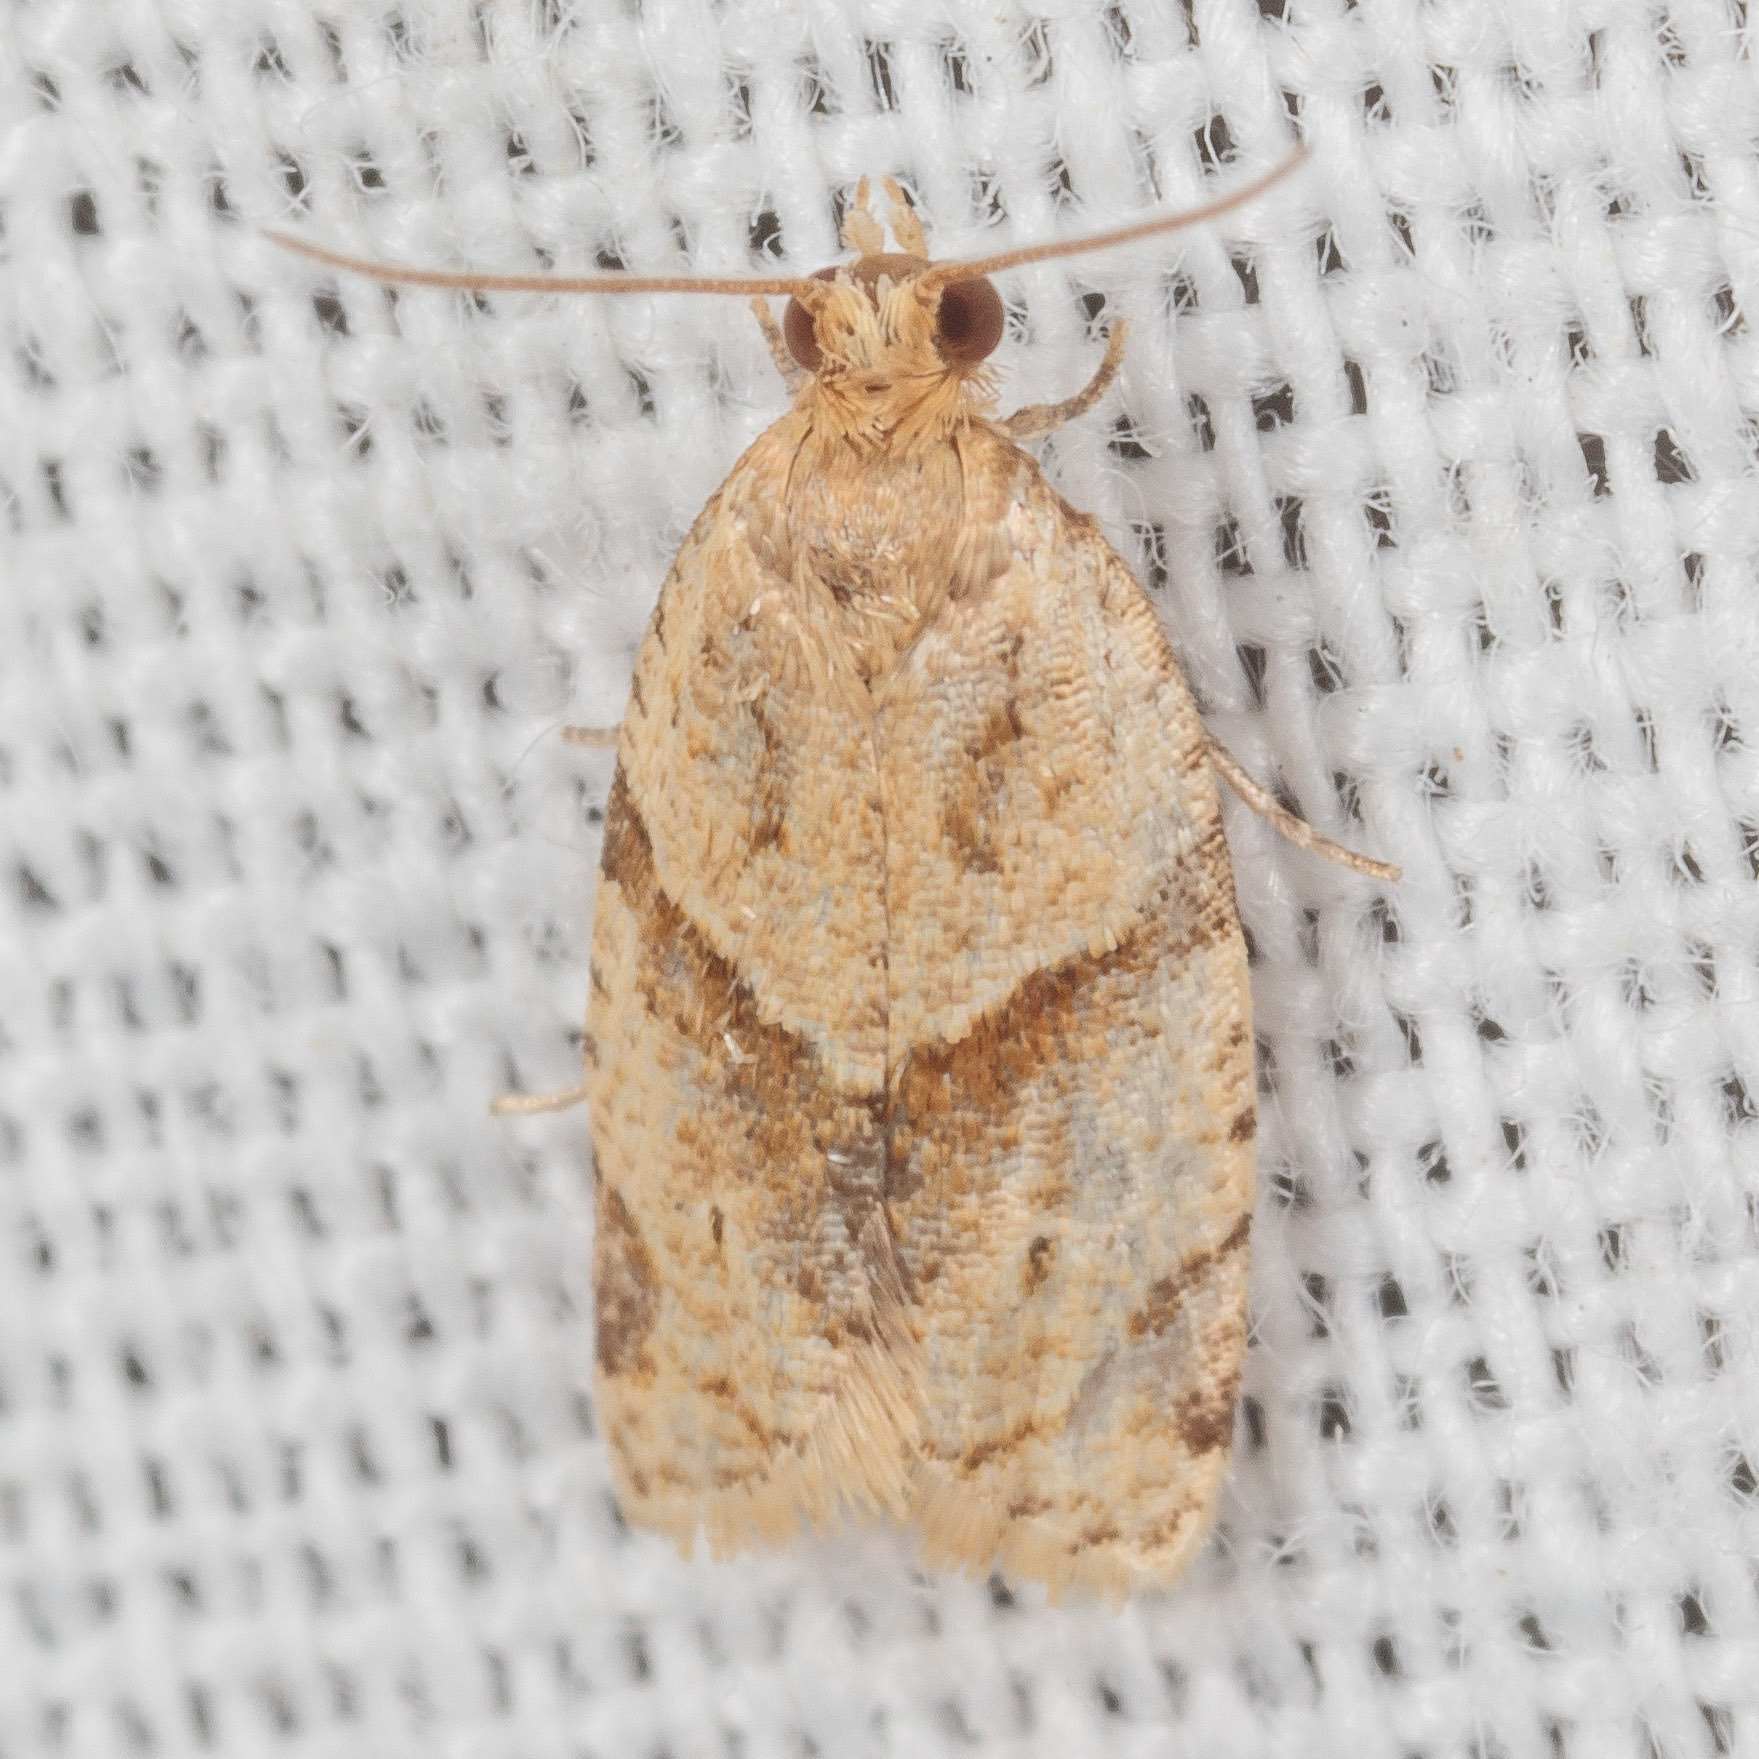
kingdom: Animalia
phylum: Arthropoda
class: Insecta
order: Lepidoptera
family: Tortricidae
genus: Clepsis
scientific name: Clepsis peritana
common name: Garden tortrix
